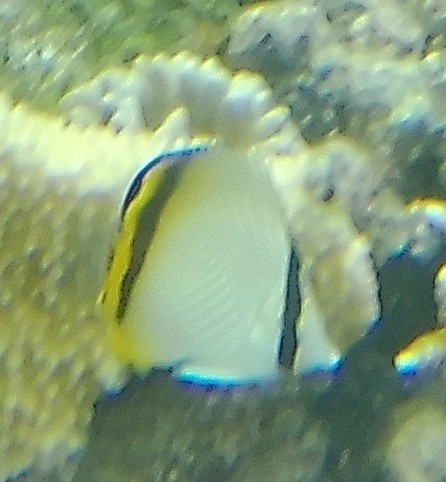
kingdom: Animalia
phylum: Chordata
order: Perciformes
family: Chaetodontidae
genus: Chaetodon
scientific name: Chaetodon vagabundus
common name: Vagabond butterflyfish
